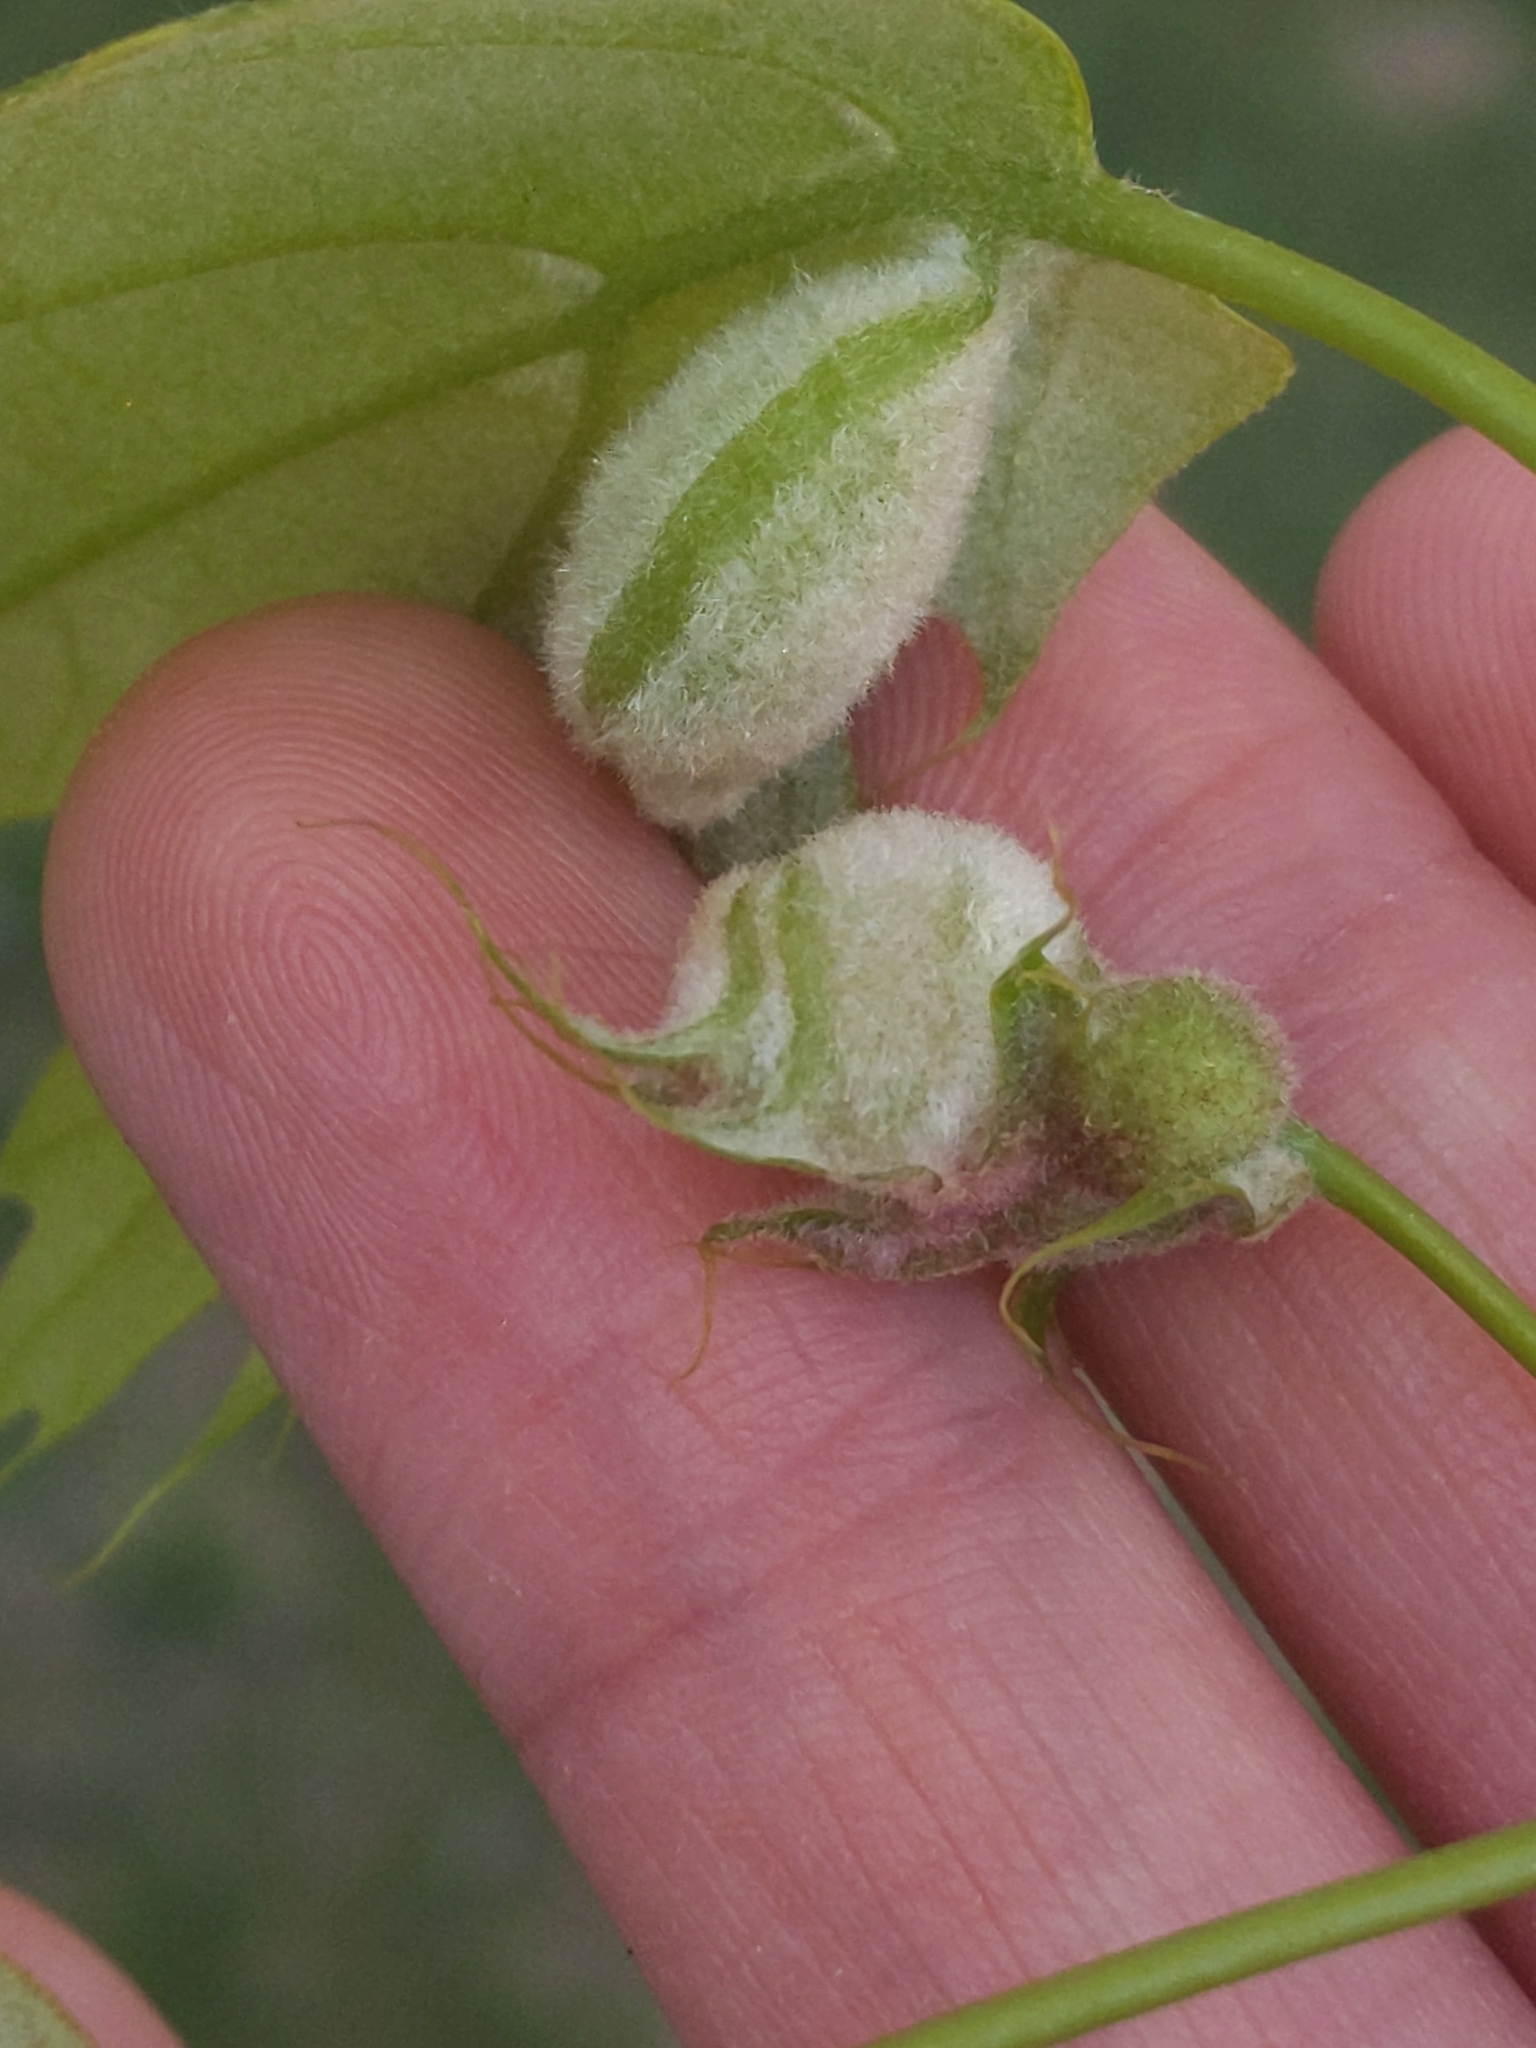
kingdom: Animalia
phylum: Arthropoda
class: Insecta
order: Diptera
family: Cecidomyiidae
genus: Macrodiplosis
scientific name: Macrodiplosis niveipila
